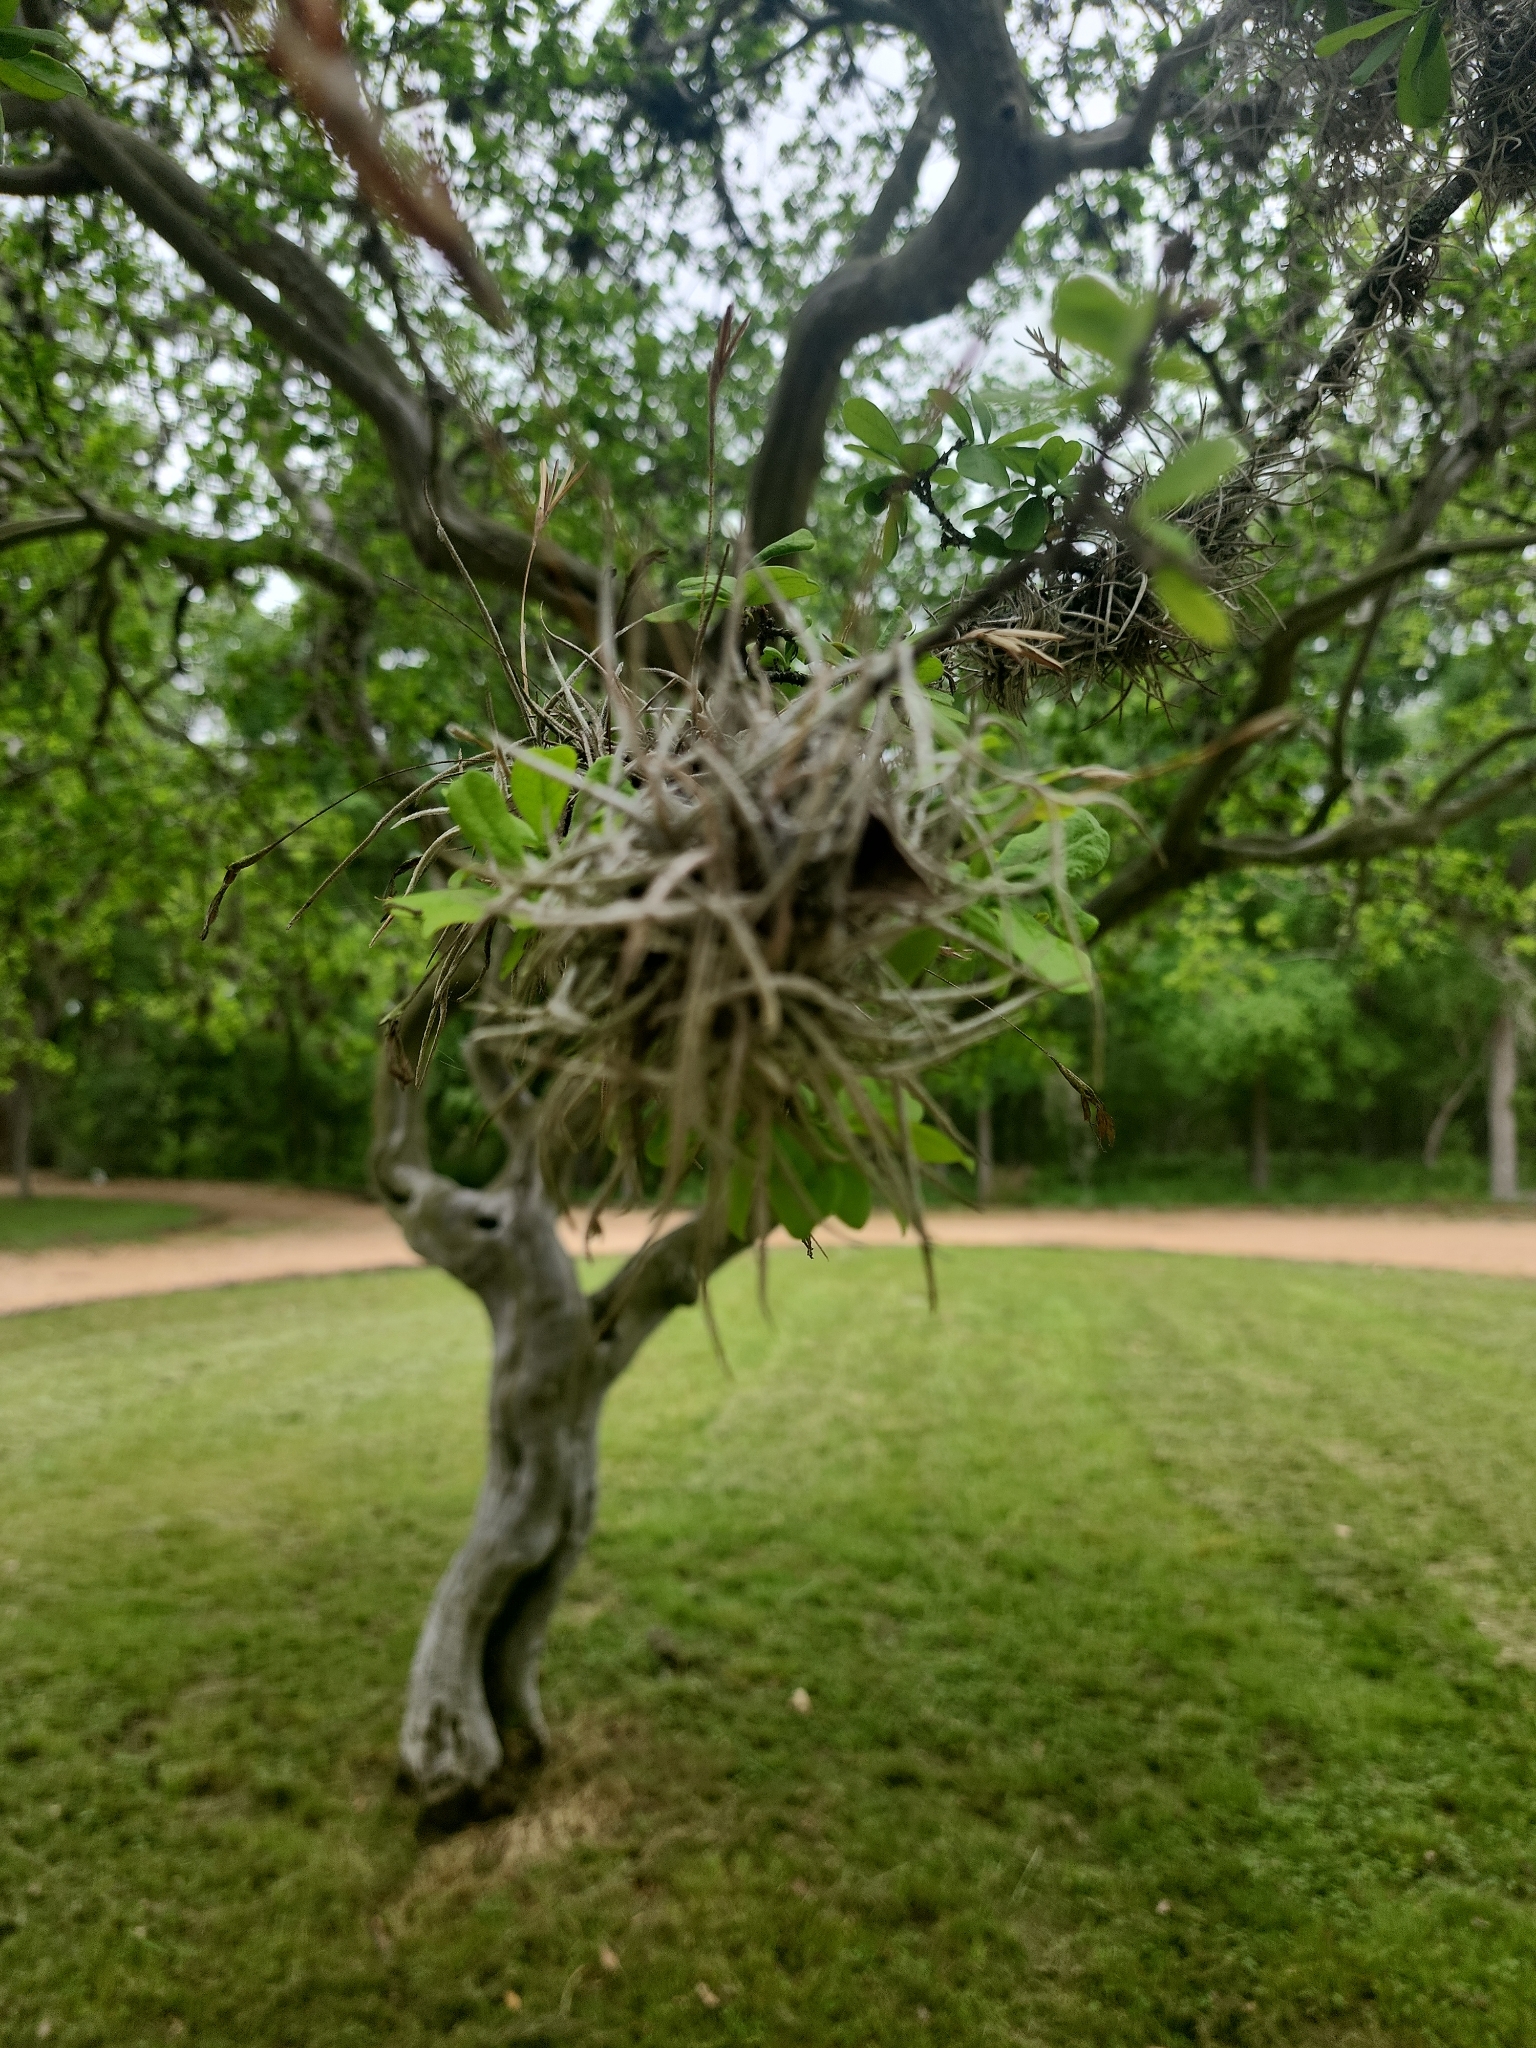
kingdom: Plantae
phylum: Tracheophyta
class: Liliopsida
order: Poales
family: Bromeliaceae
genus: Tillandsia
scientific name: Tillandsia recurvata
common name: Small ballmoss
